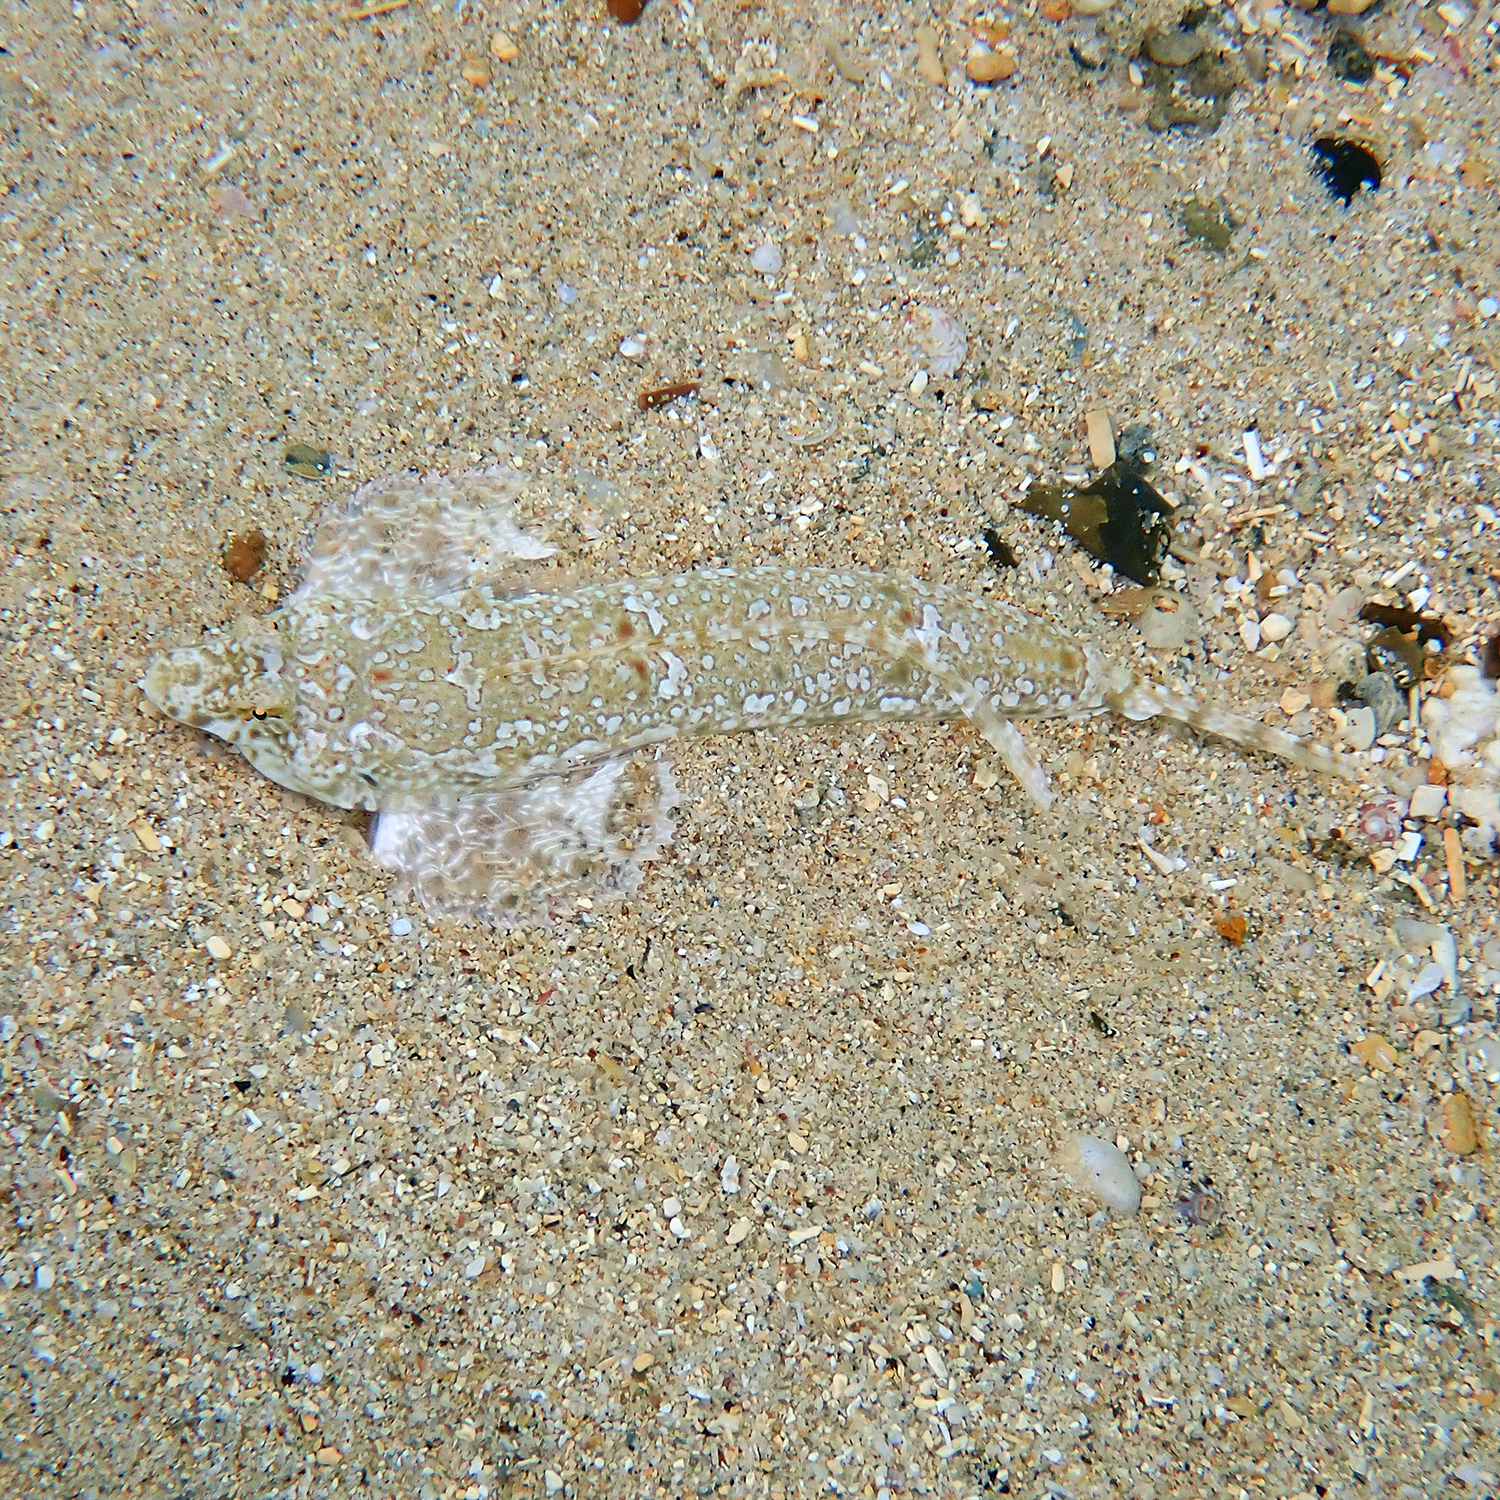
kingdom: Animalia
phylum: Chordata
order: Perciformes
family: Callionymidae
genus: Diplogrammus
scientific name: Diplogrammus goramensis
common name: Goram dragonet
